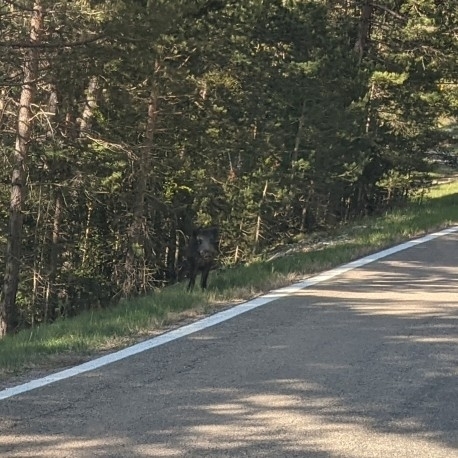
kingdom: Animalia
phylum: Chordata
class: Mammalia
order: Artiodactyla
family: Suidae
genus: Sus
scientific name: Sus scrofa
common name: Wild boar
